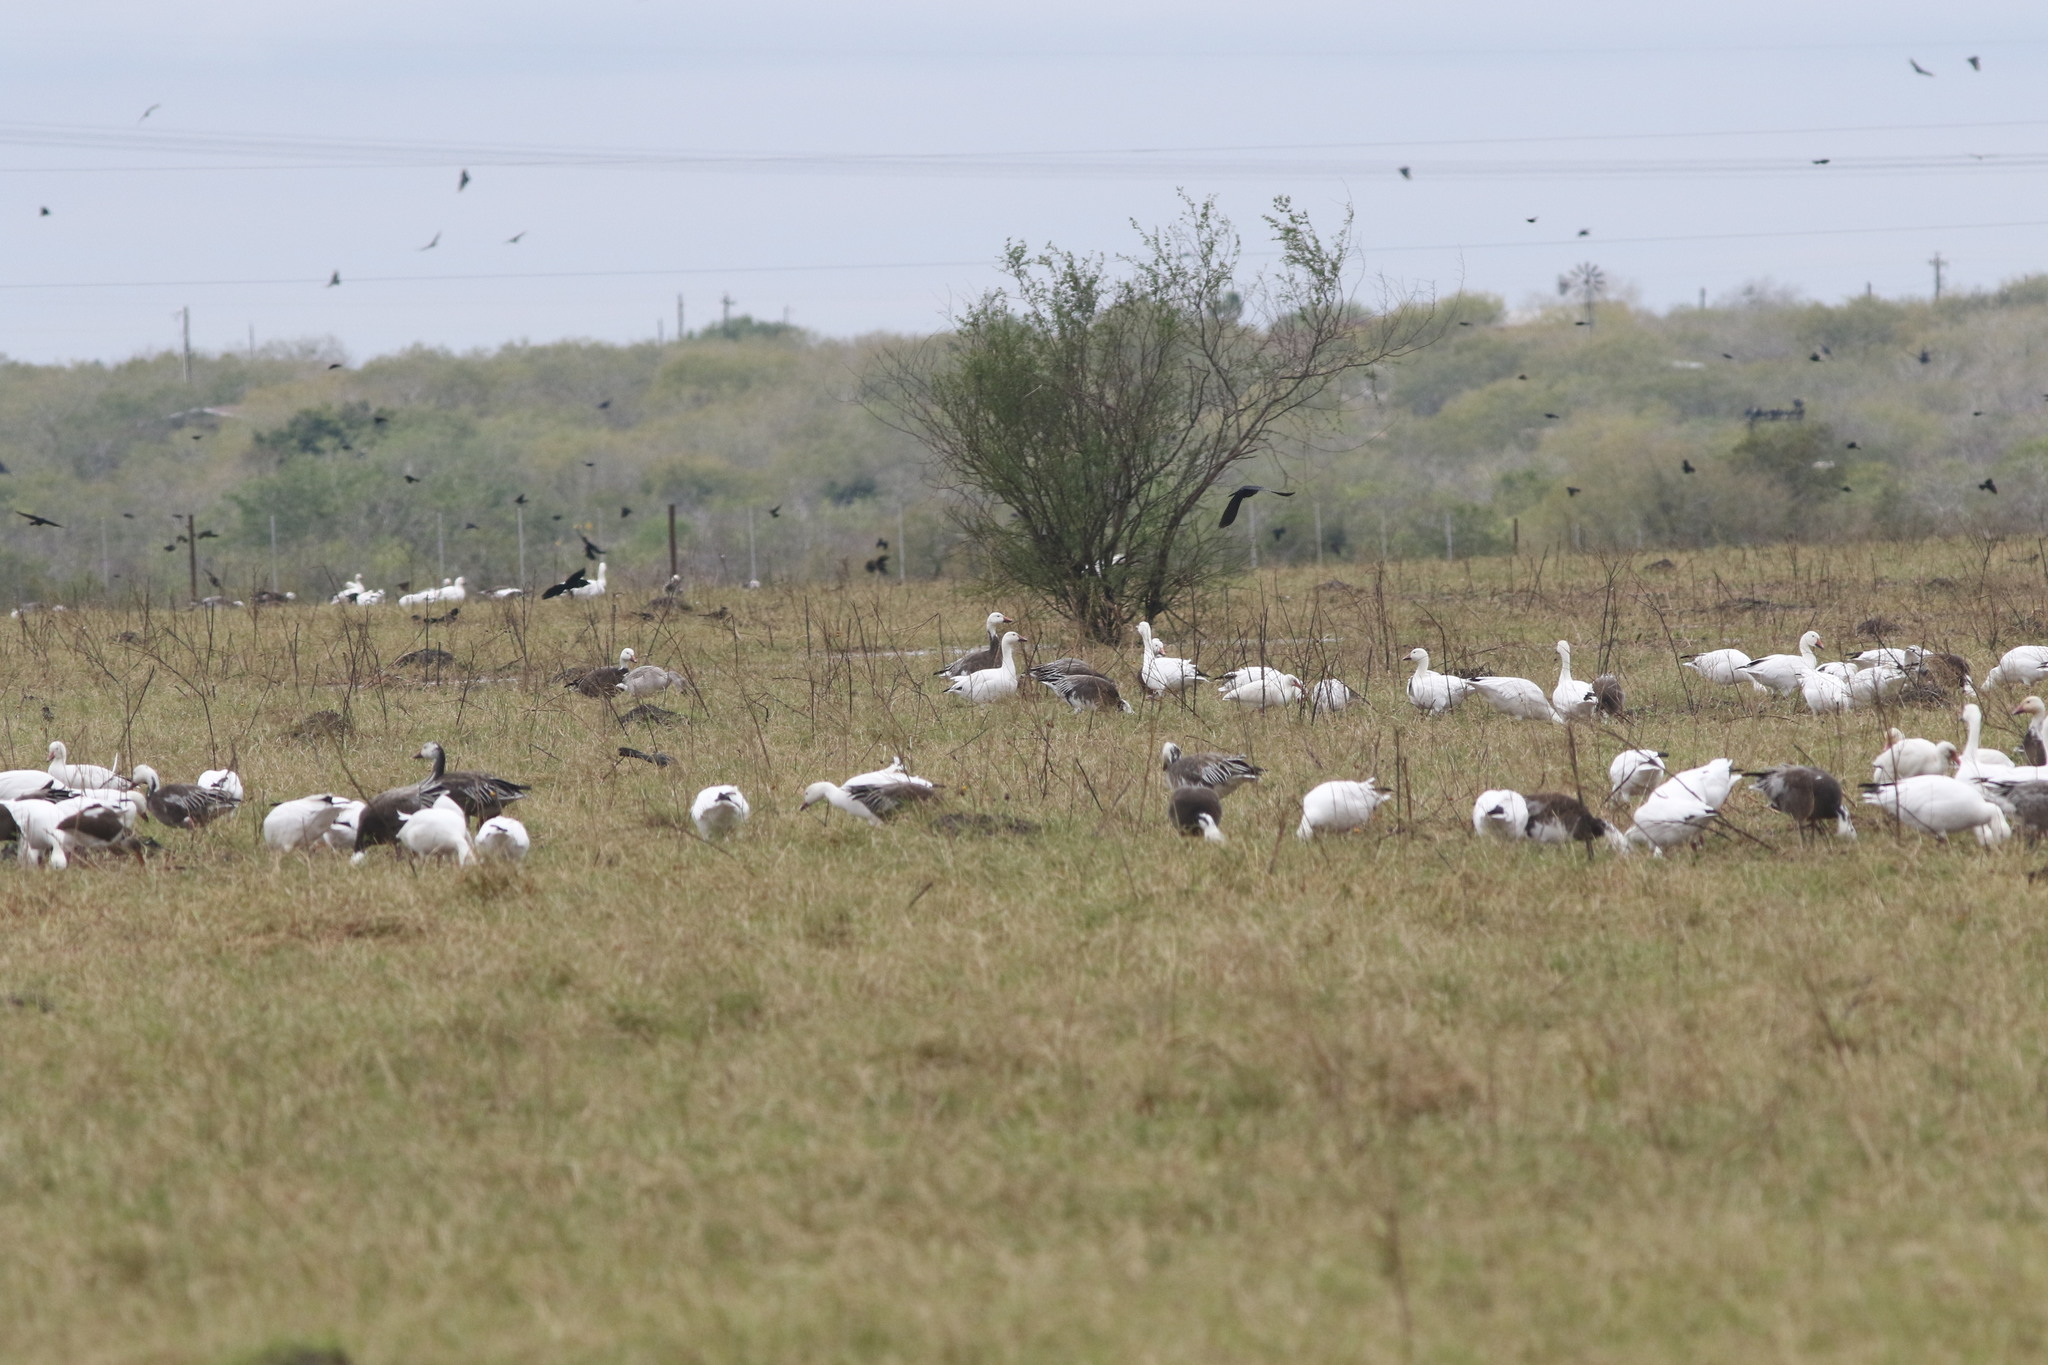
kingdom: Animalia
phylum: Chordata
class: Aves
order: Anseriformes
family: Anatidae
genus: Anser
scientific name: Anser caerulescens
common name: Snow goose
